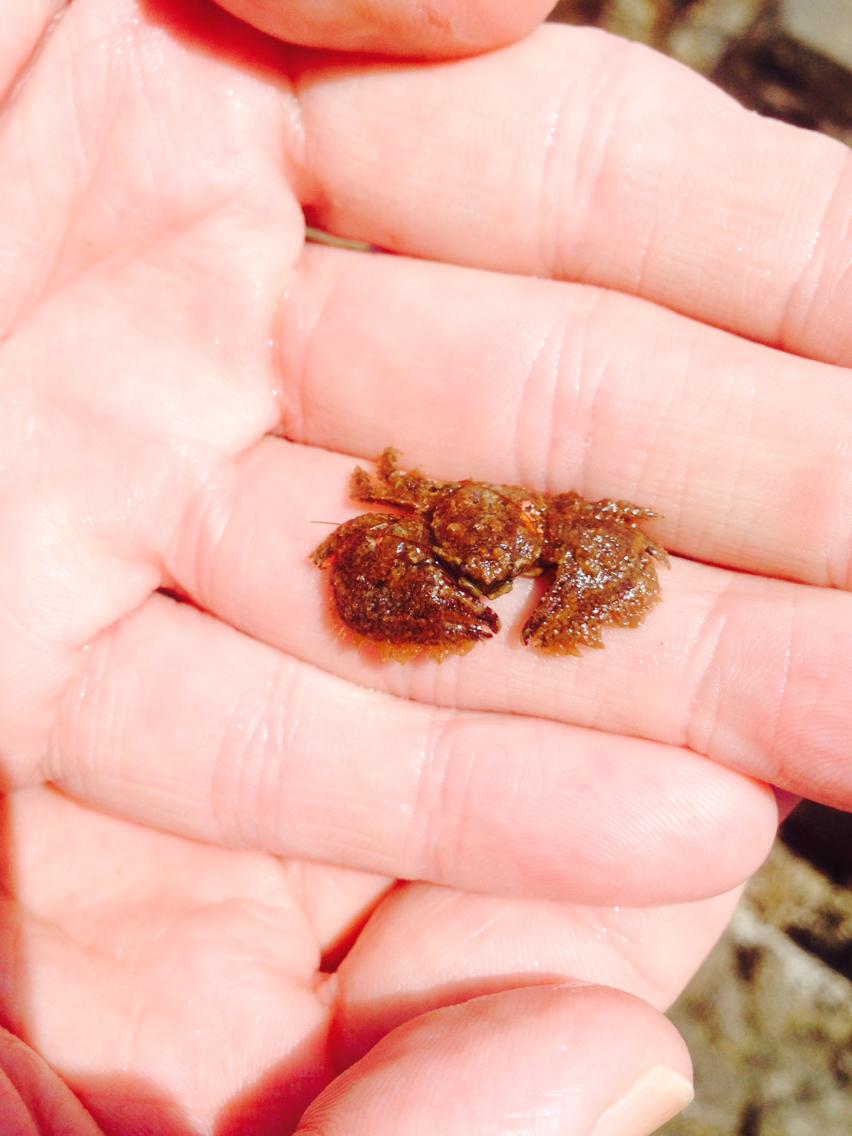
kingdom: Animalia
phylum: Arthropoda
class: Malacostraca
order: Decapoda
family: Porcellanidae
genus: Porcellana
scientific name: Porcellana platycheles
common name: Porcelain crab
